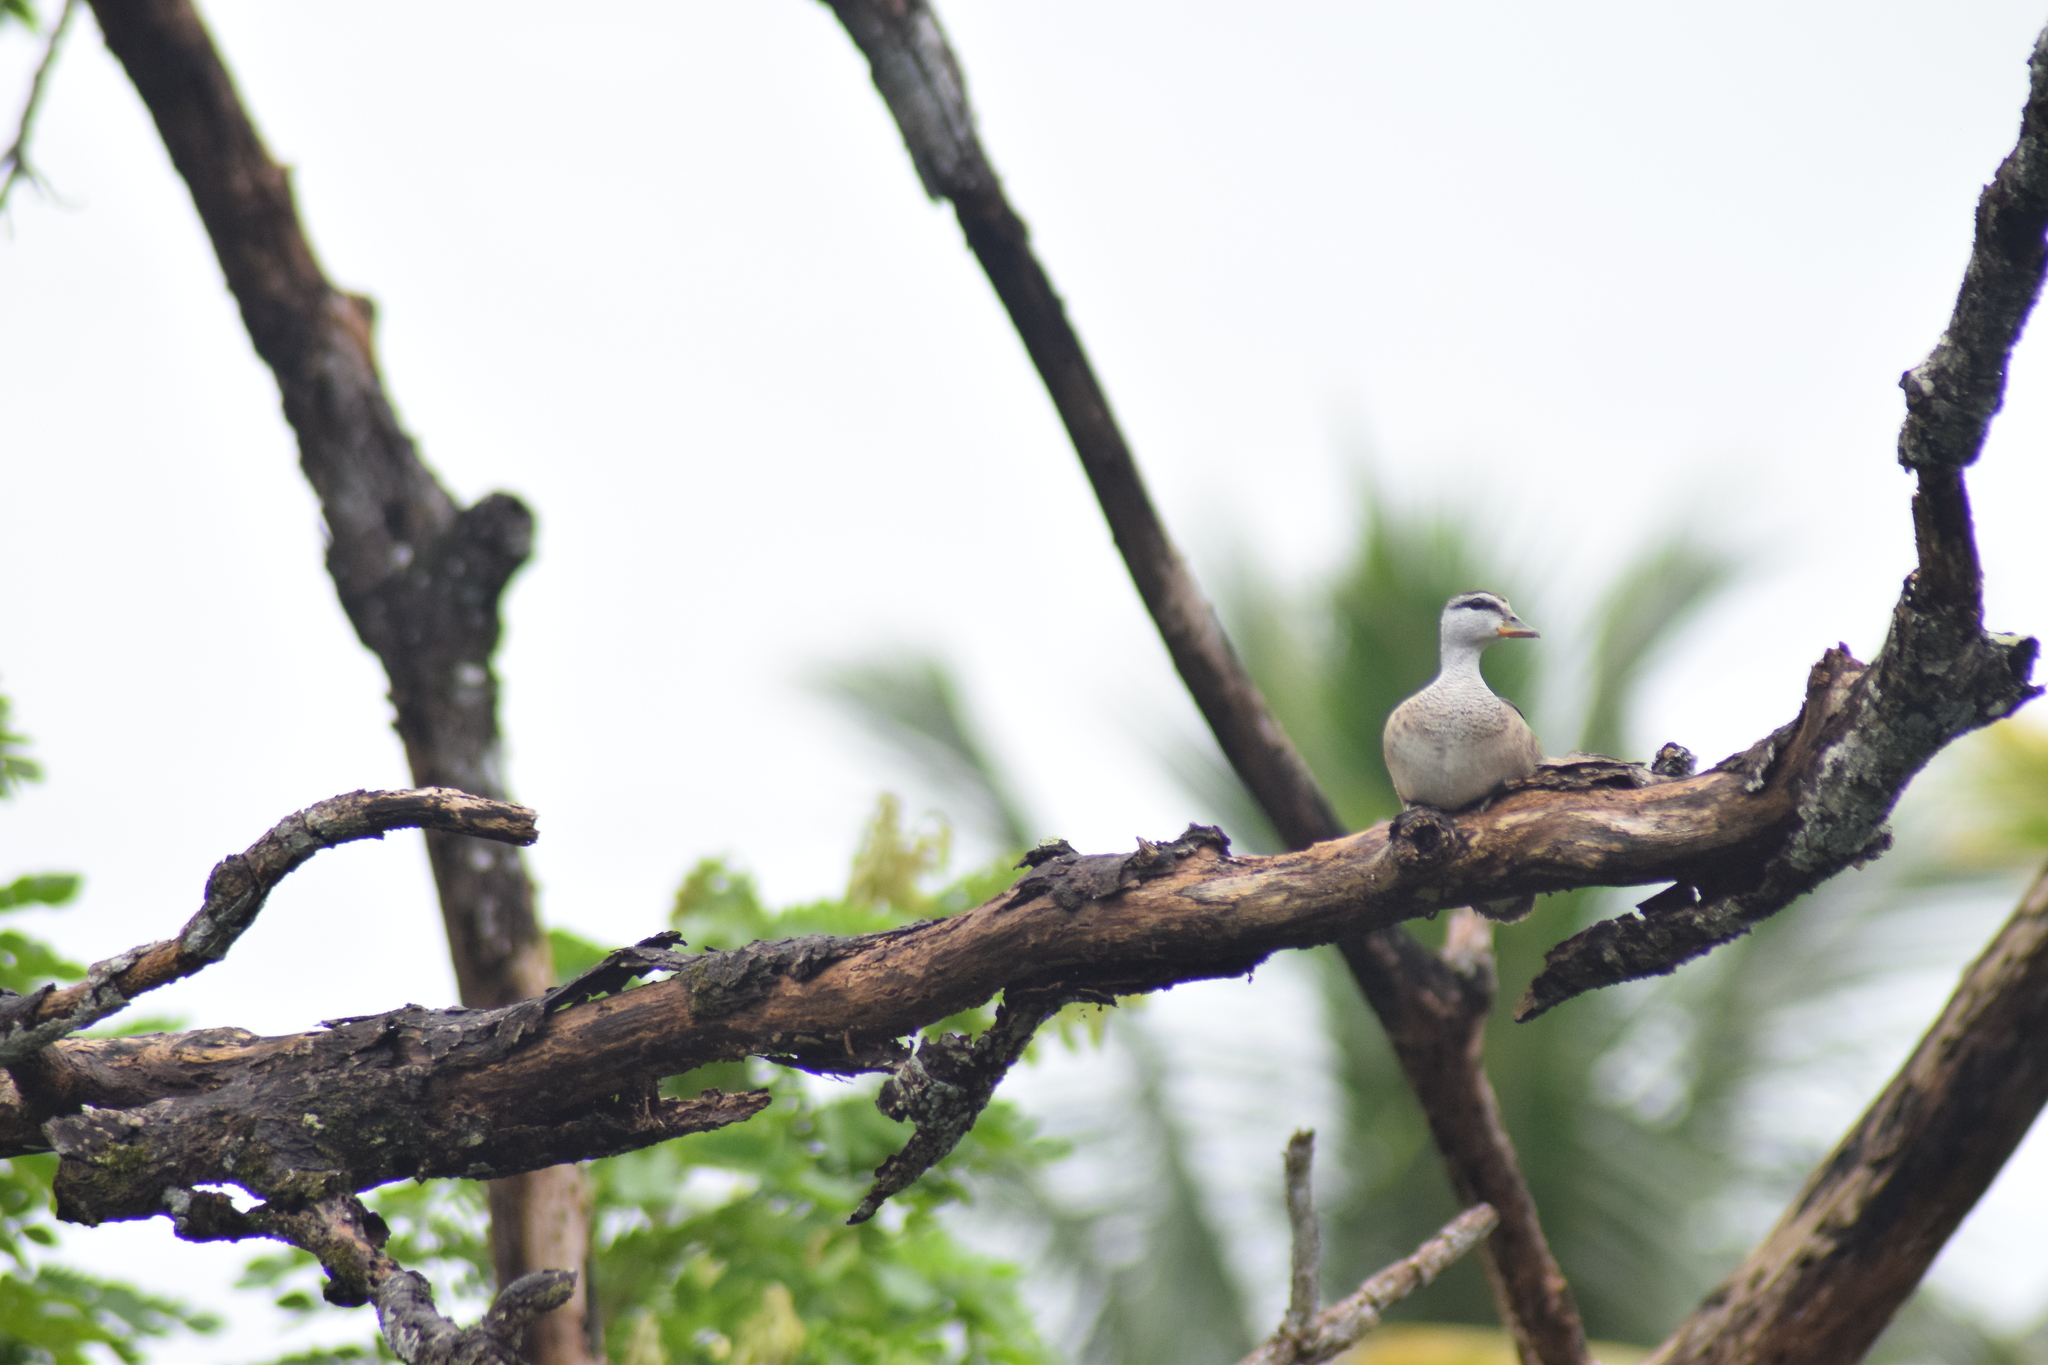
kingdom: Animalia
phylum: Chordata
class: Aves
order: Anseriformes
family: Anatidae
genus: Nettapus
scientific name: Nettapus coromandelianus
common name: Cotton pygmy-goose
